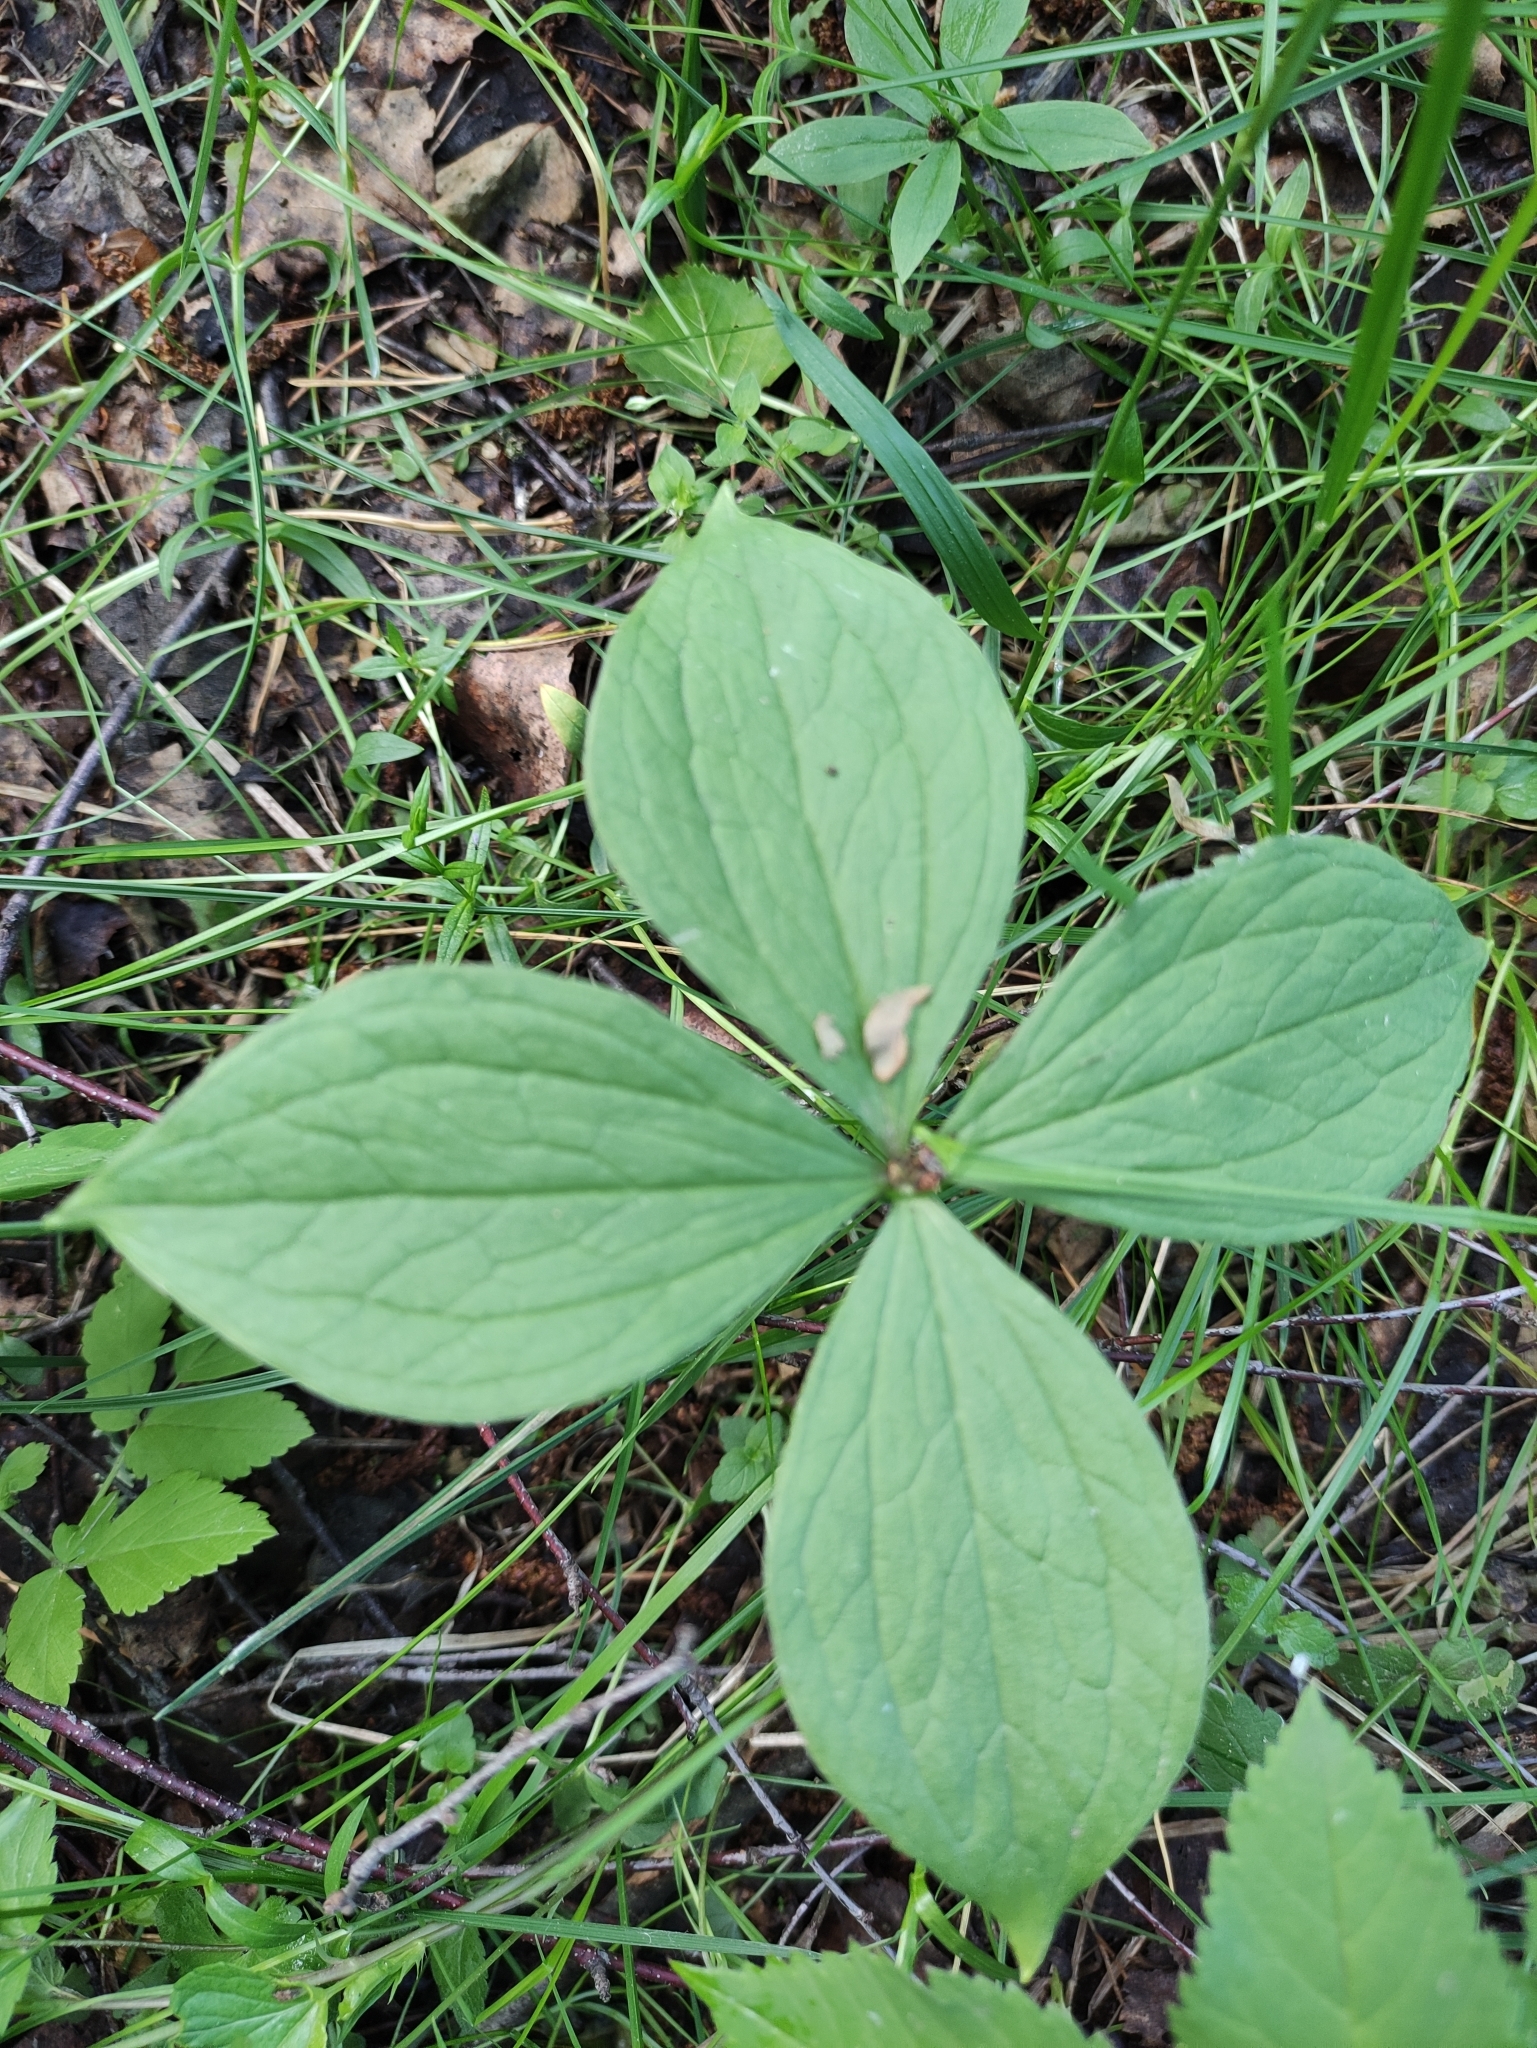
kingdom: Plantae
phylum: Tracheophyta
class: Liliopsida
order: Liliales
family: Melanthiaceae
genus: Paris
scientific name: Paris quadrifolia
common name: Herb-paris
